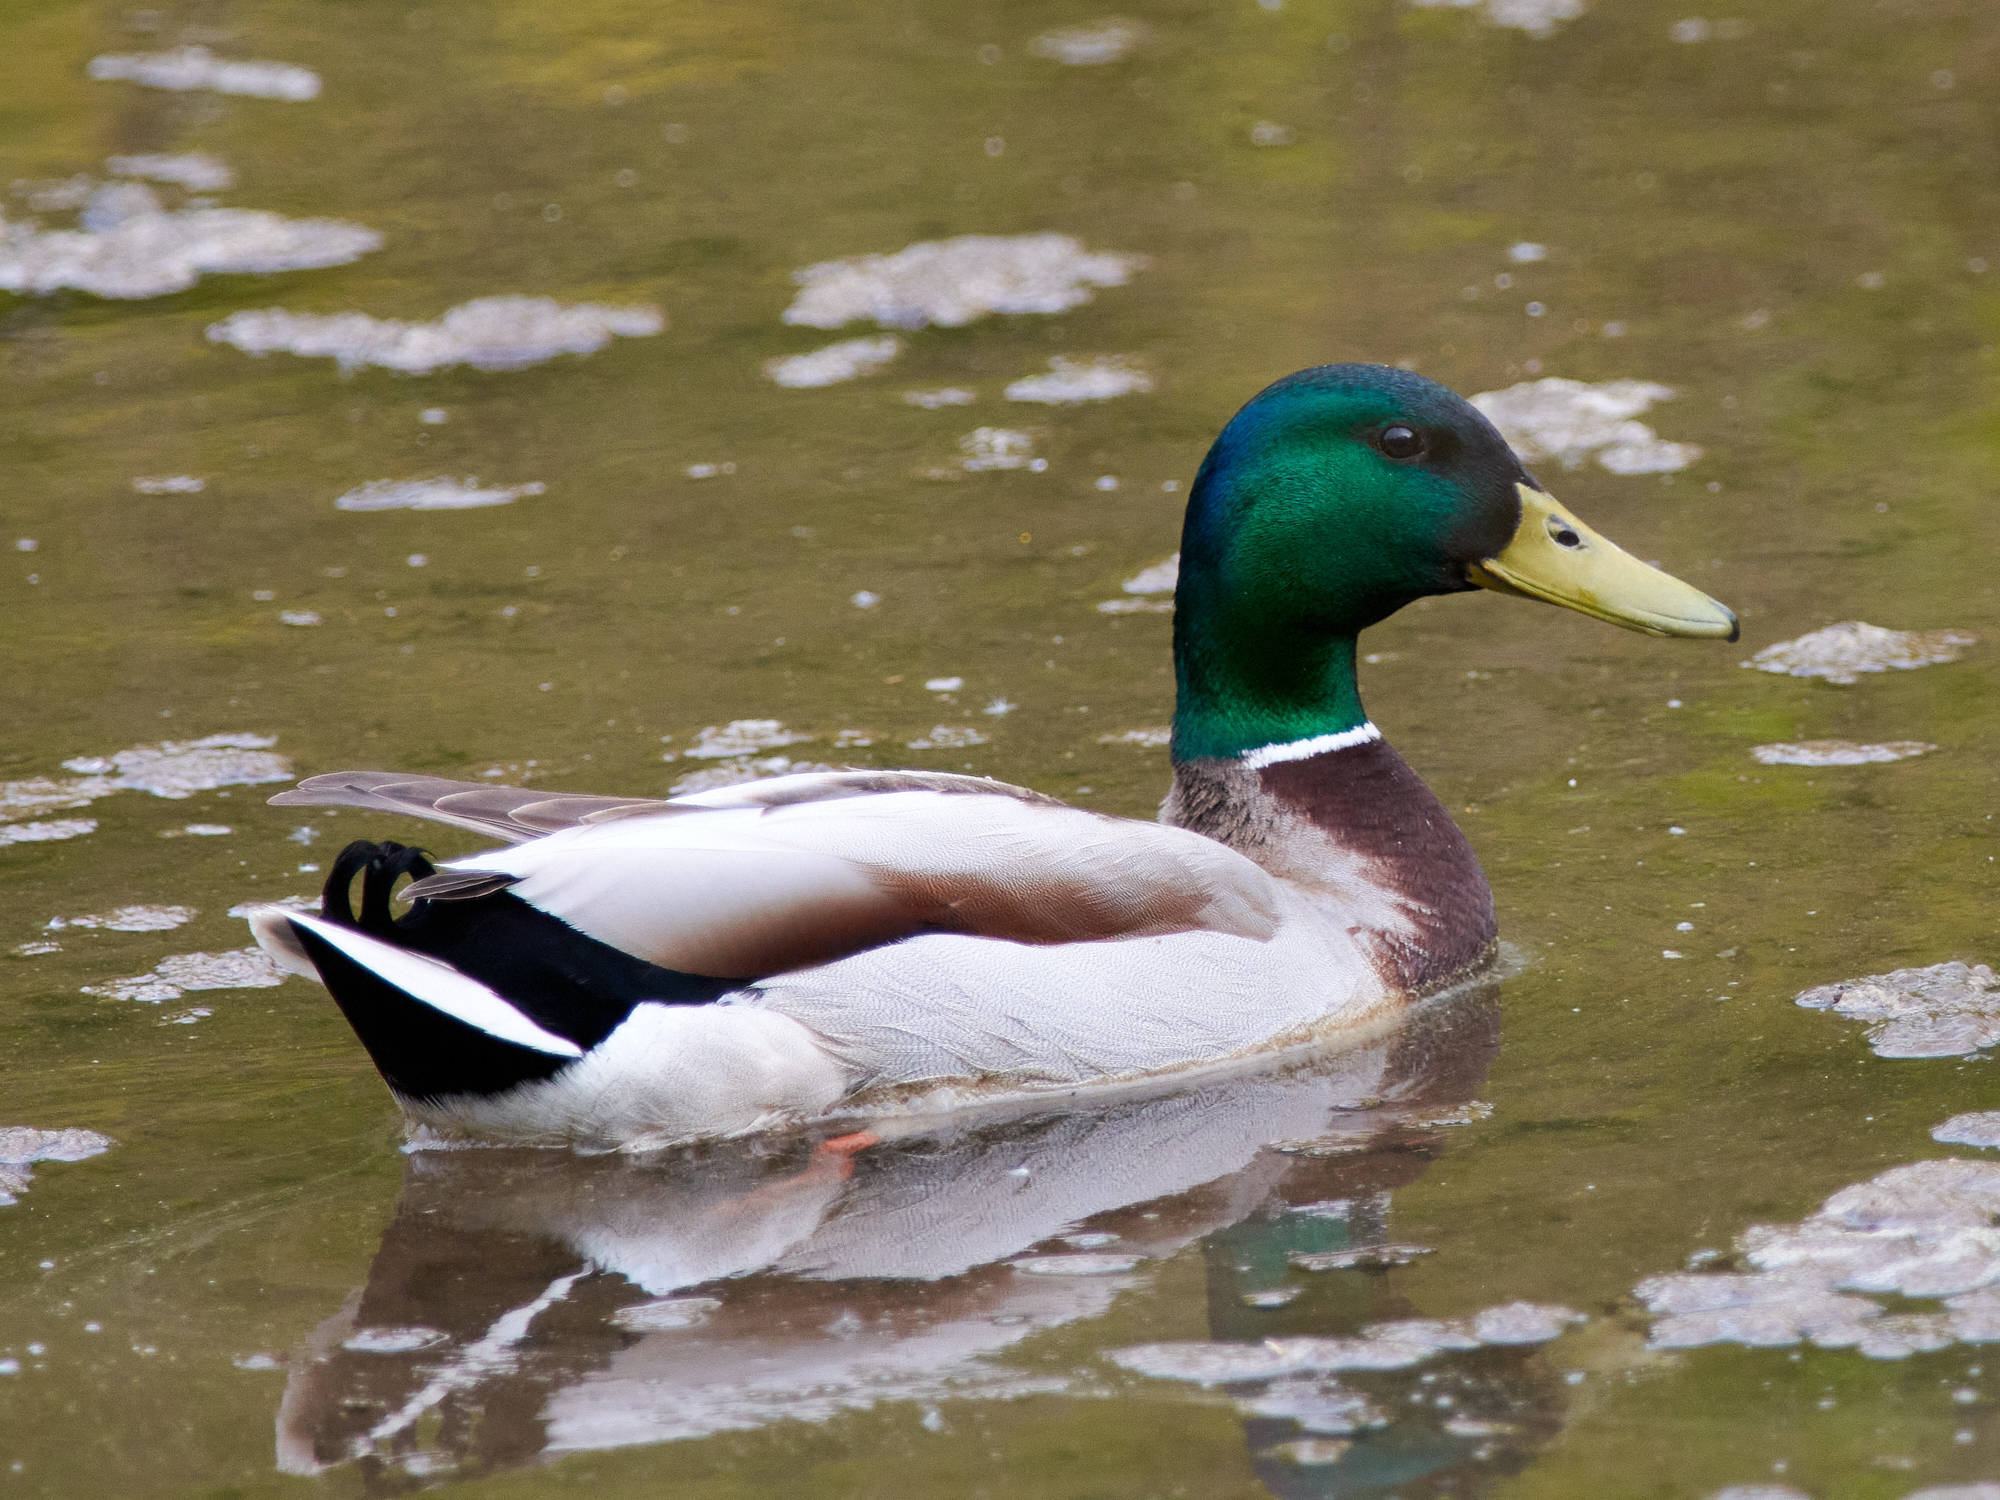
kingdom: Animalia
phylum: Chordata
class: Aves
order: Anseriformes
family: Anatidae
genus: Anas
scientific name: Anas platyrhynchos
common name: Mallard
